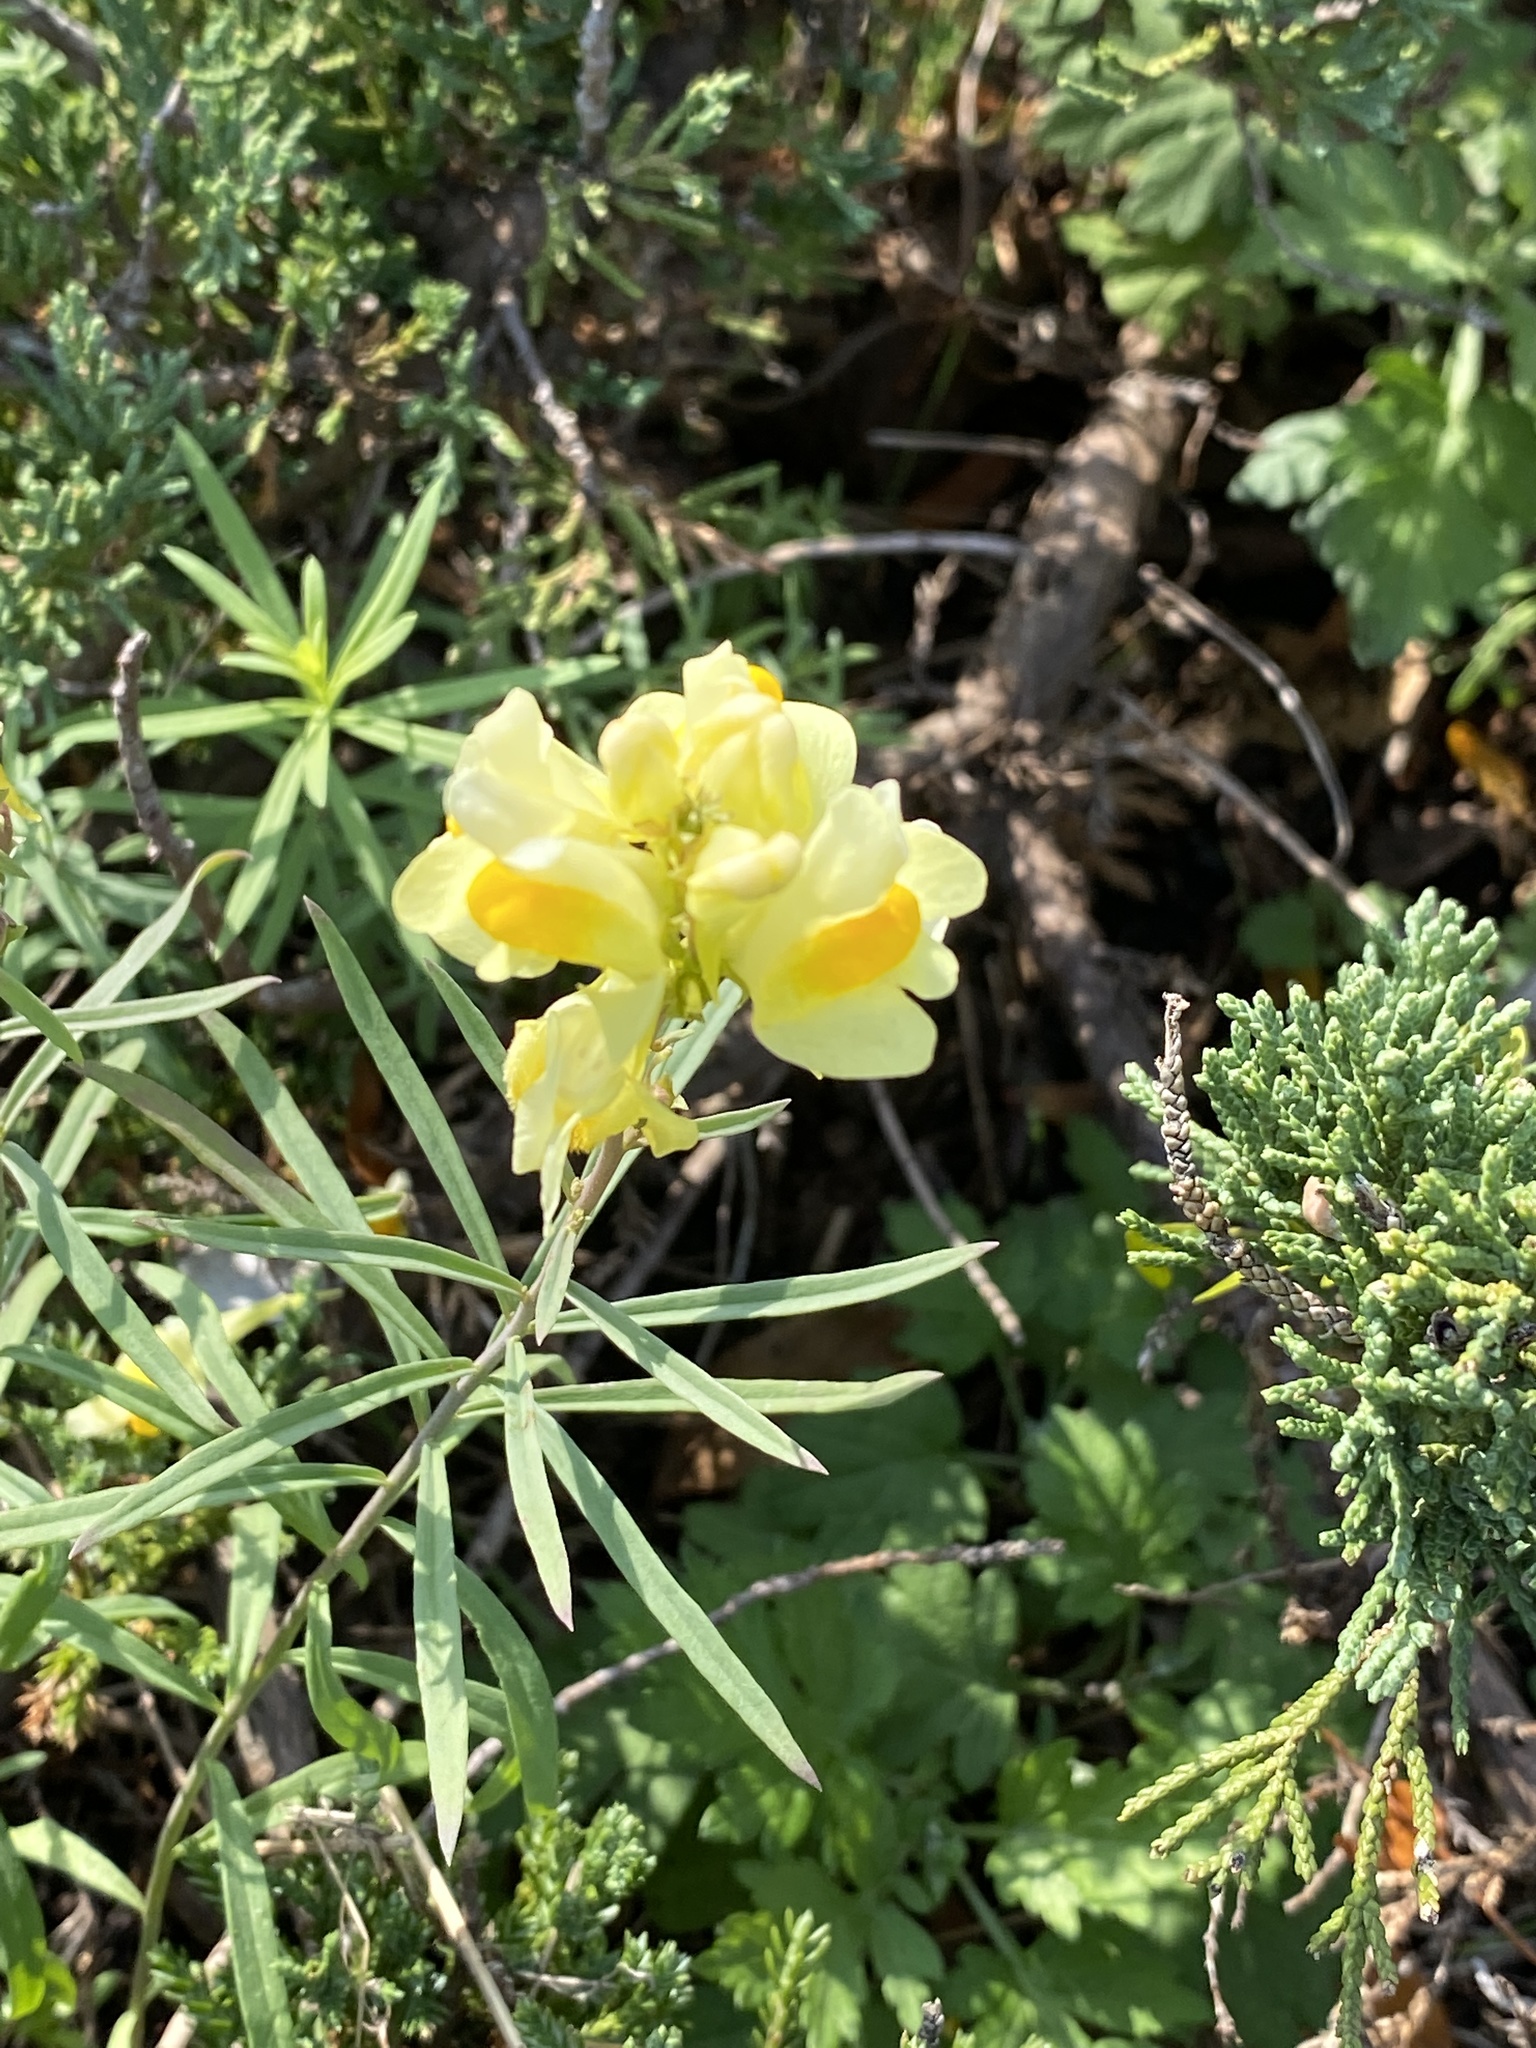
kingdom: Plantae
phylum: Tracheophyta
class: Magnoliopsida
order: Lamiales
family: Plantaginaceae
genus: Linaria
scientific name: Linaria vulgaris
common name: Butter and eggs
